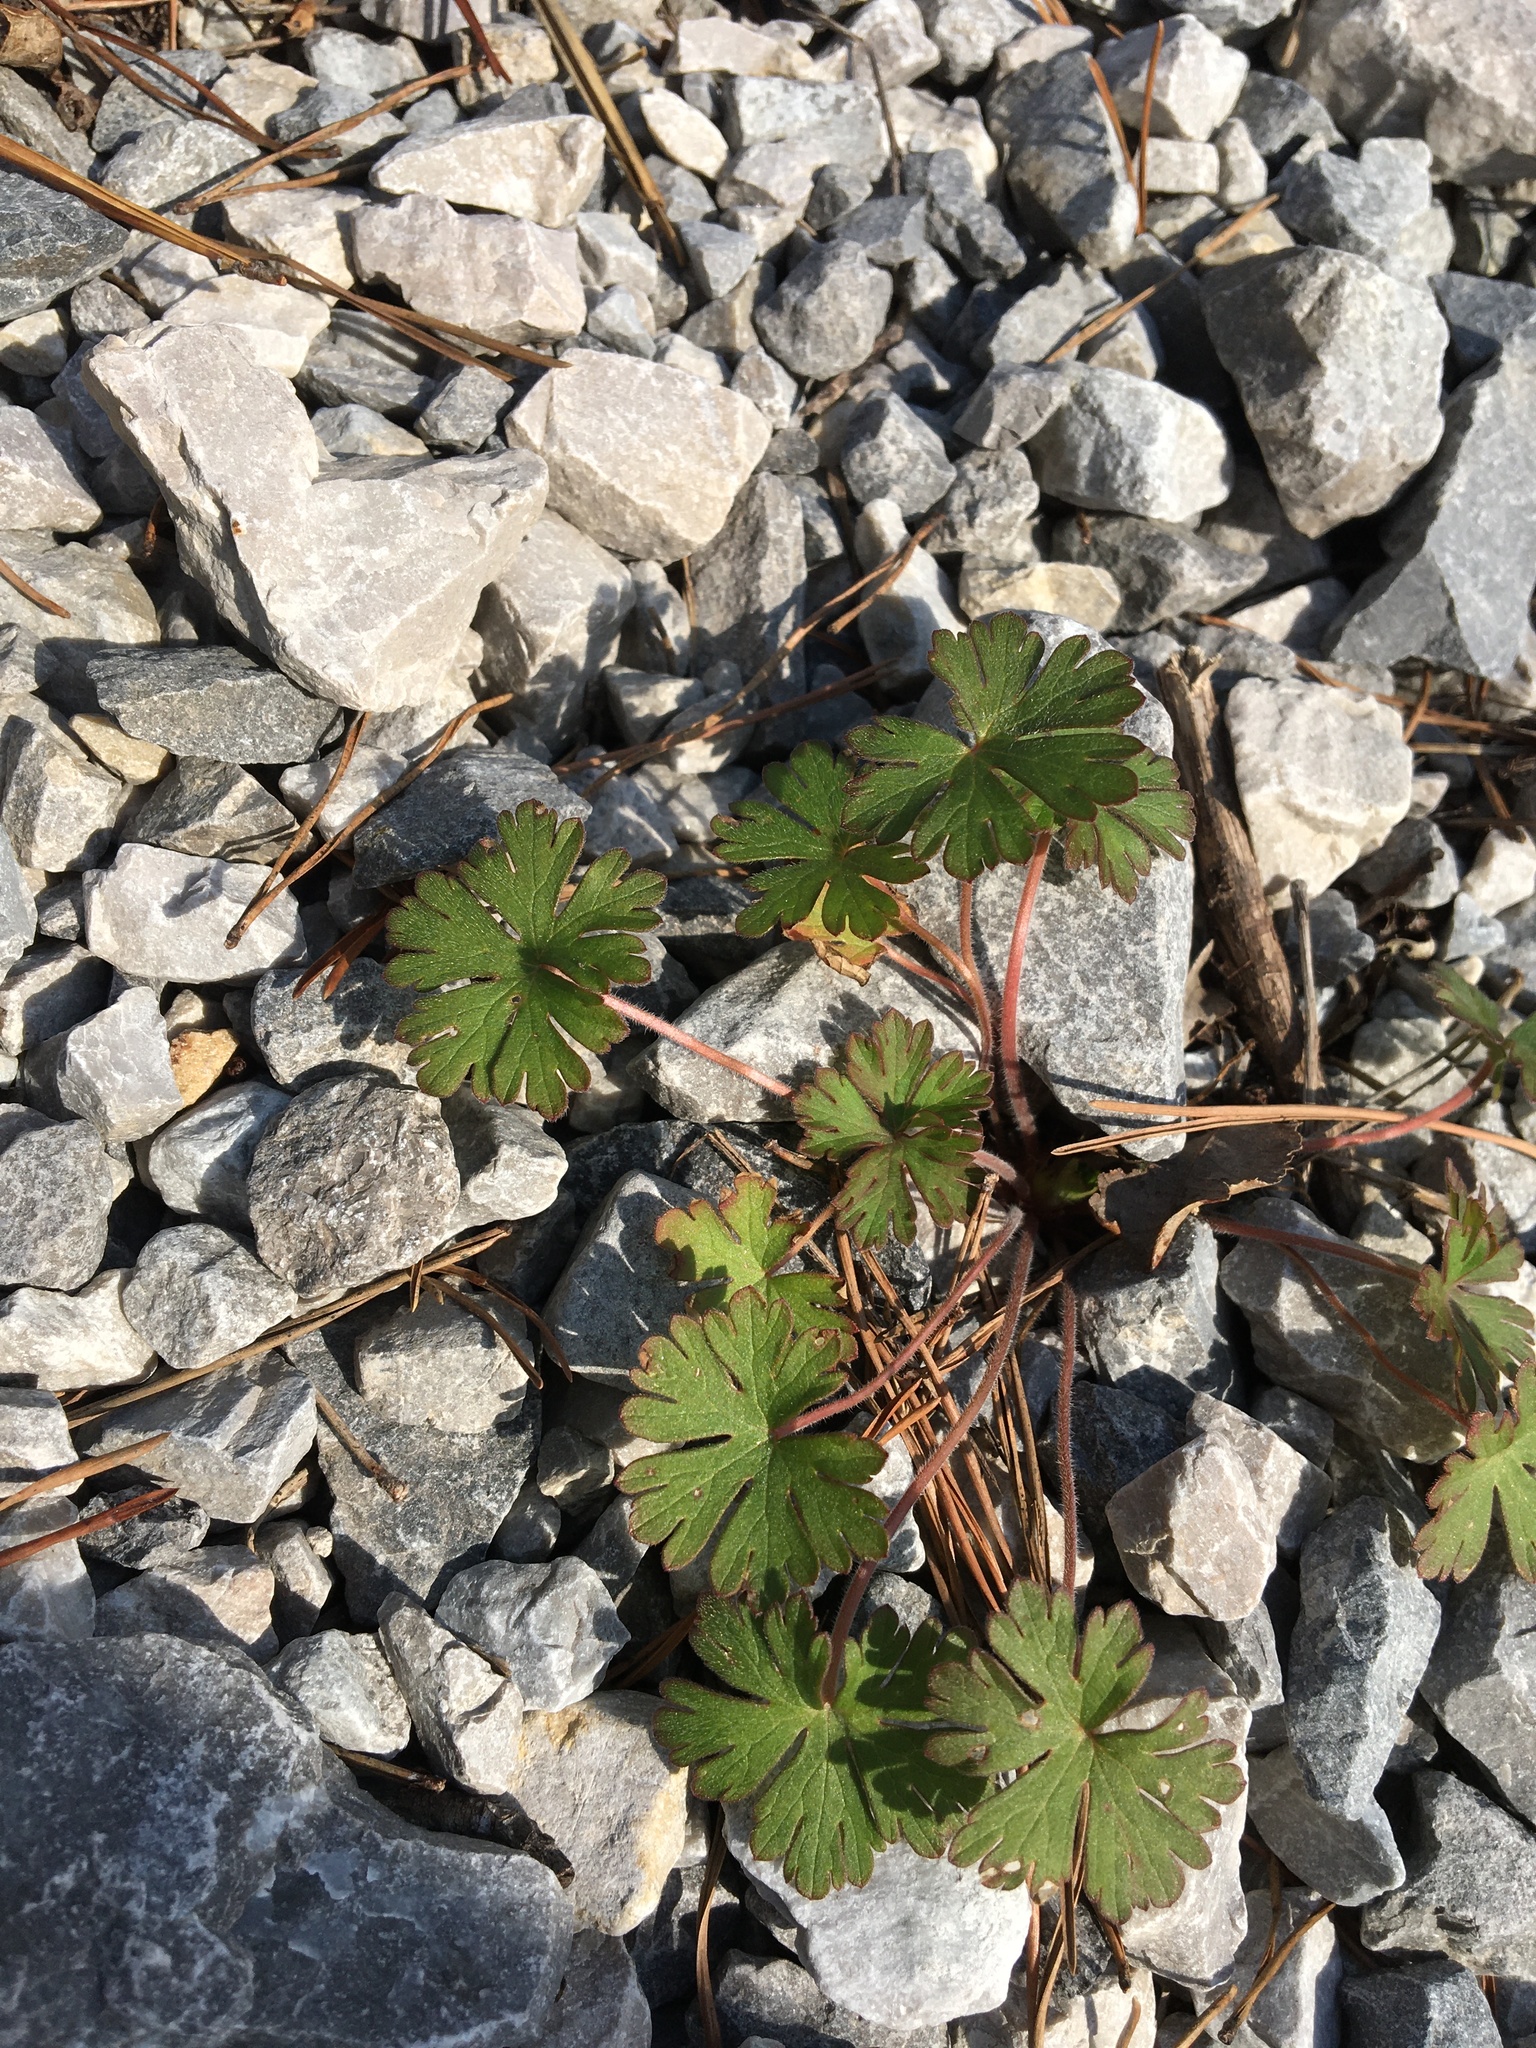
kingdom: Plantae
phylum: Tracheophyta
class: Magnoliopsida
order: Geraniales
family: Geraniaceae
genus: Geranium
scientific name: Geranium molle
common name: Dove's-foot crane's-bill
